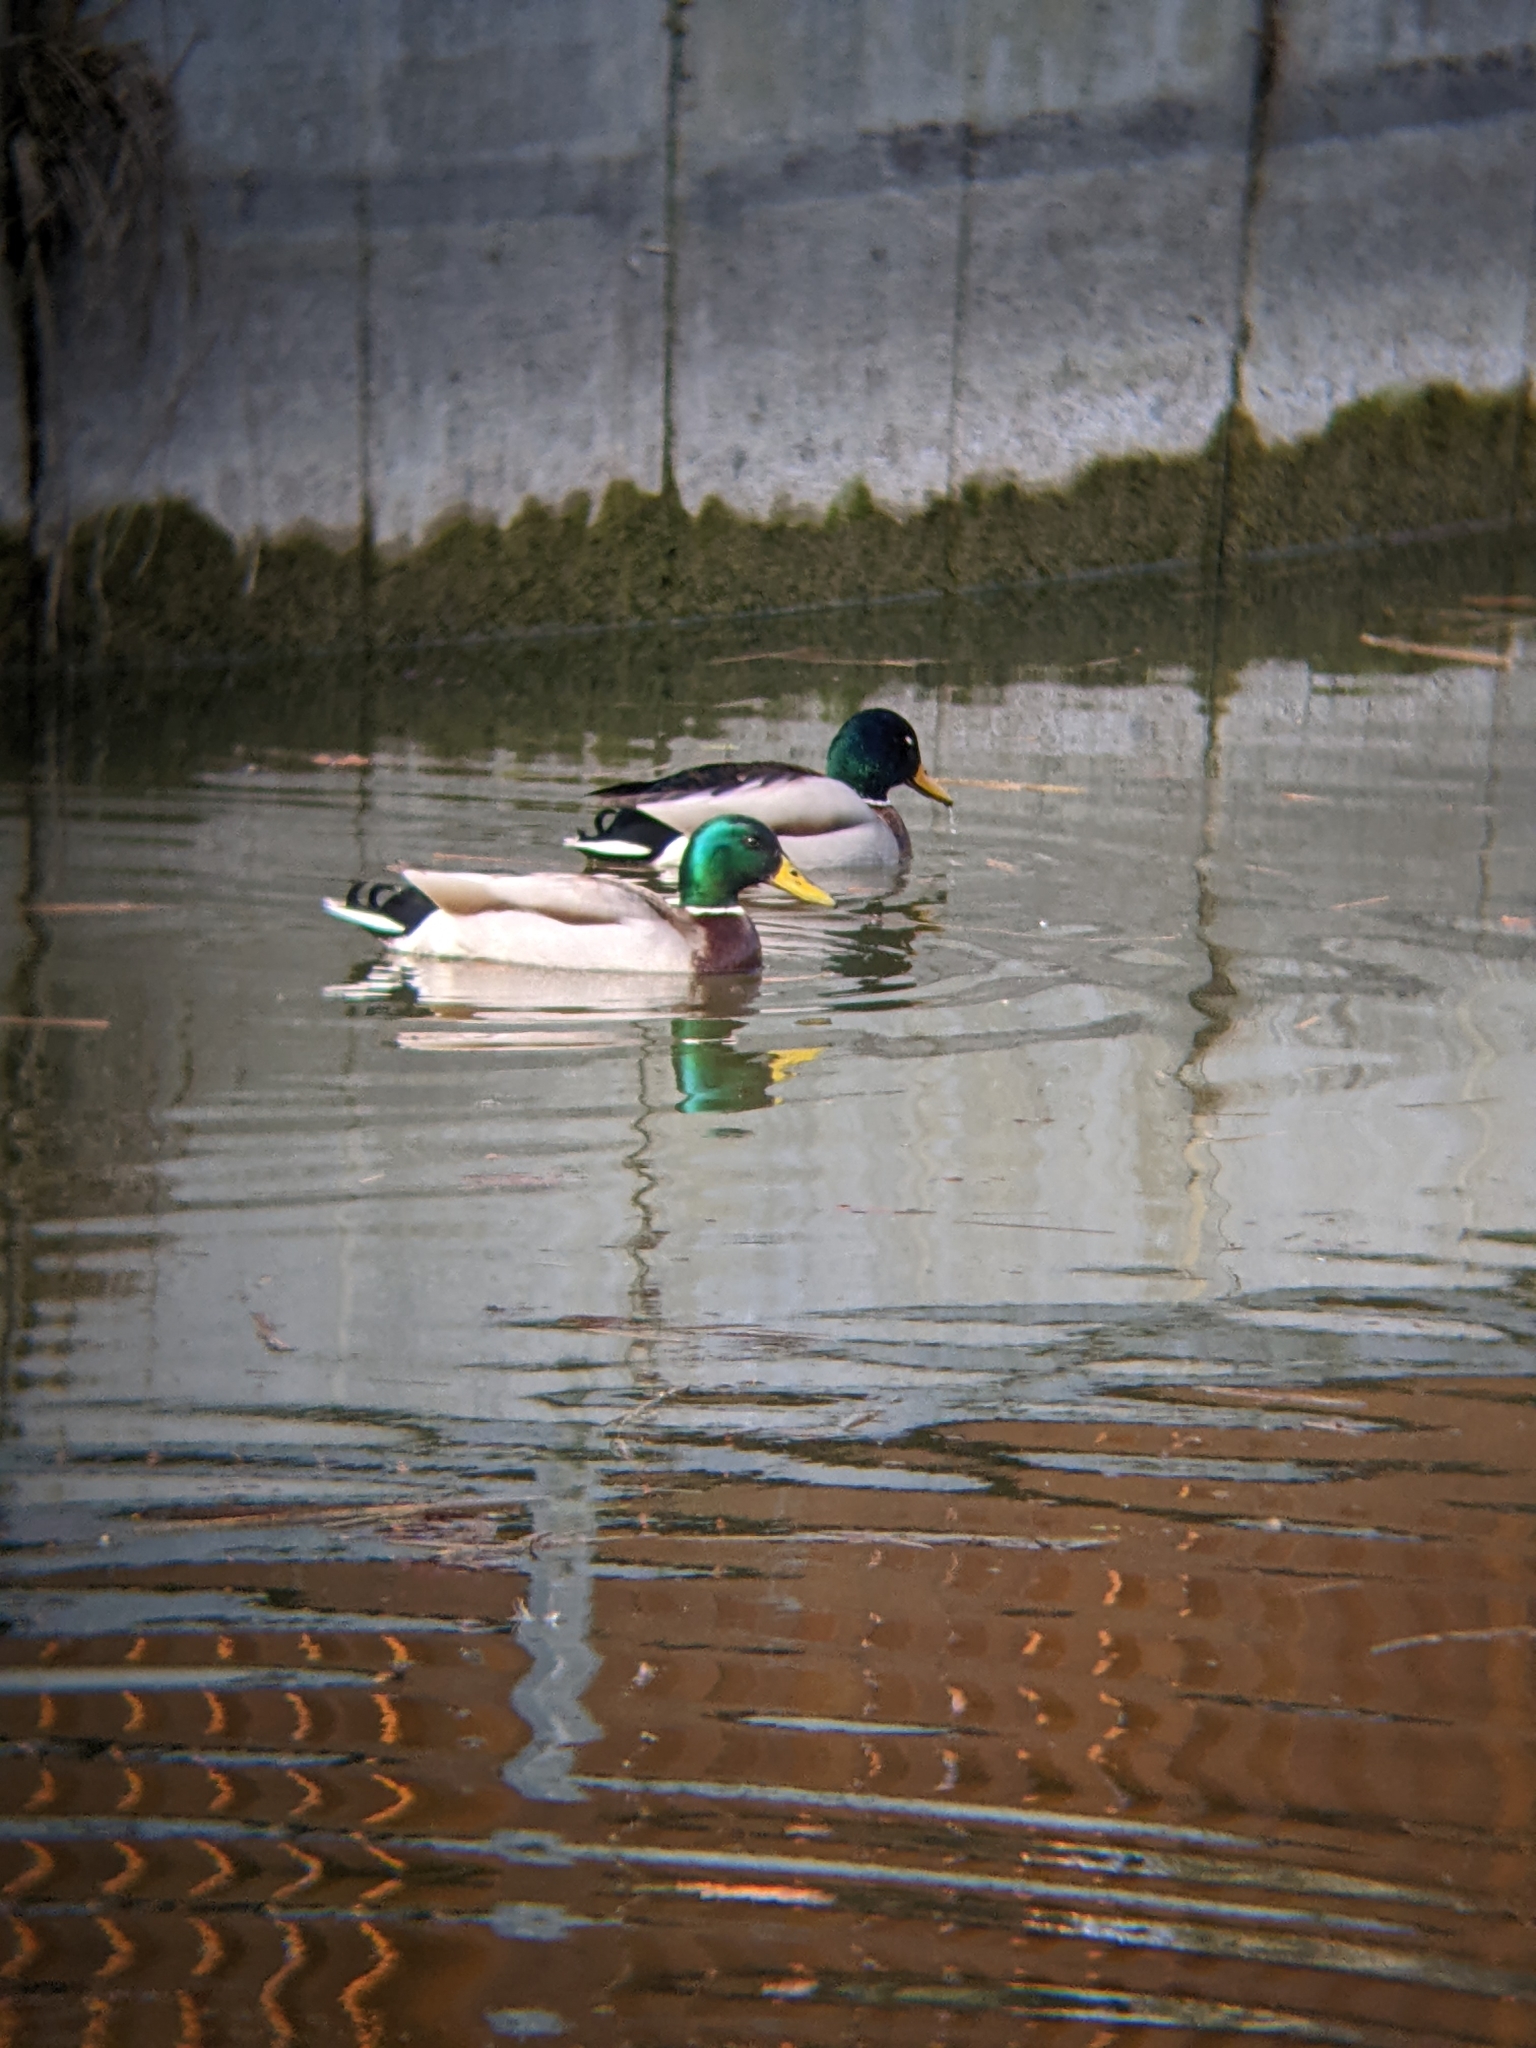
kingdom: Animalia
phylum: Chordata
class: Aves
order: Anseriformes
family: Anatidae
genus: Anas
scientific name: Anas platyrhynchos
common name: Mallard
